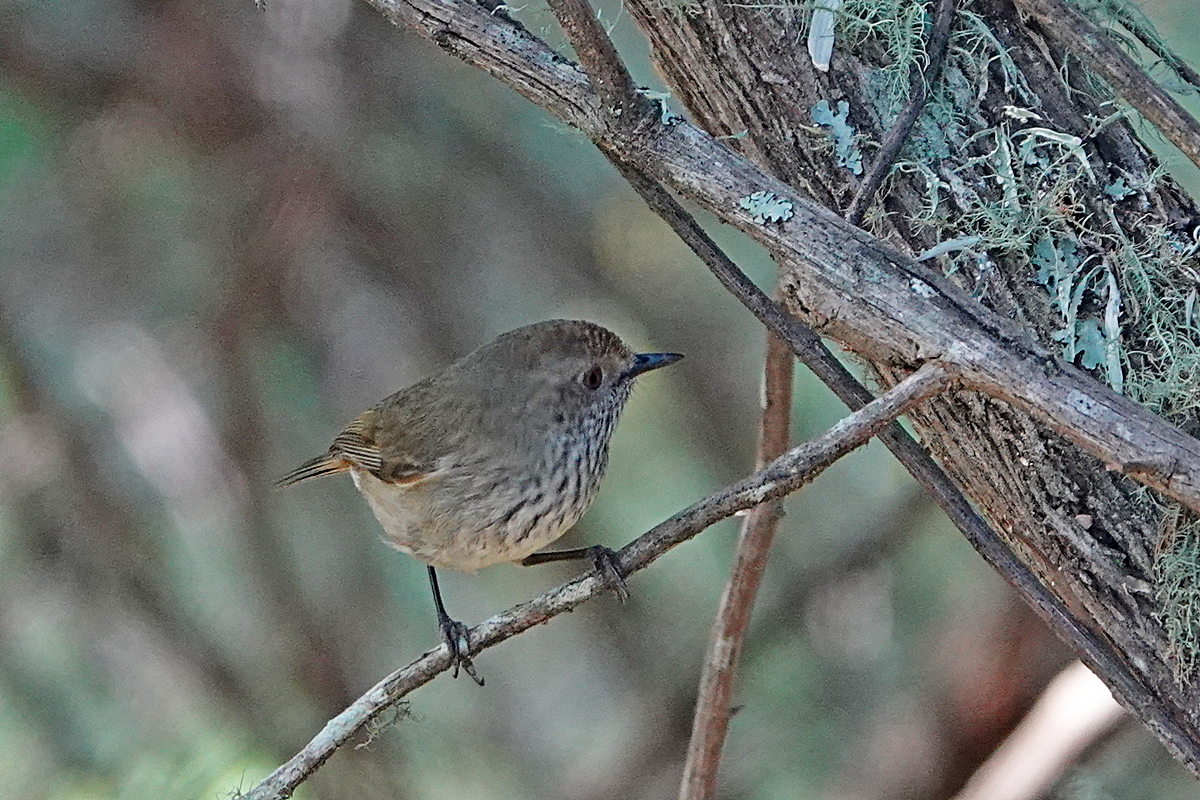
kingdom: Animalia
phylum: Chordata
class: Aves
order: Passeriformes
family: Acanthizidae
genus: Acanthiza
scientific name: Acanthiza pusilla
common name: Brown thornbill
